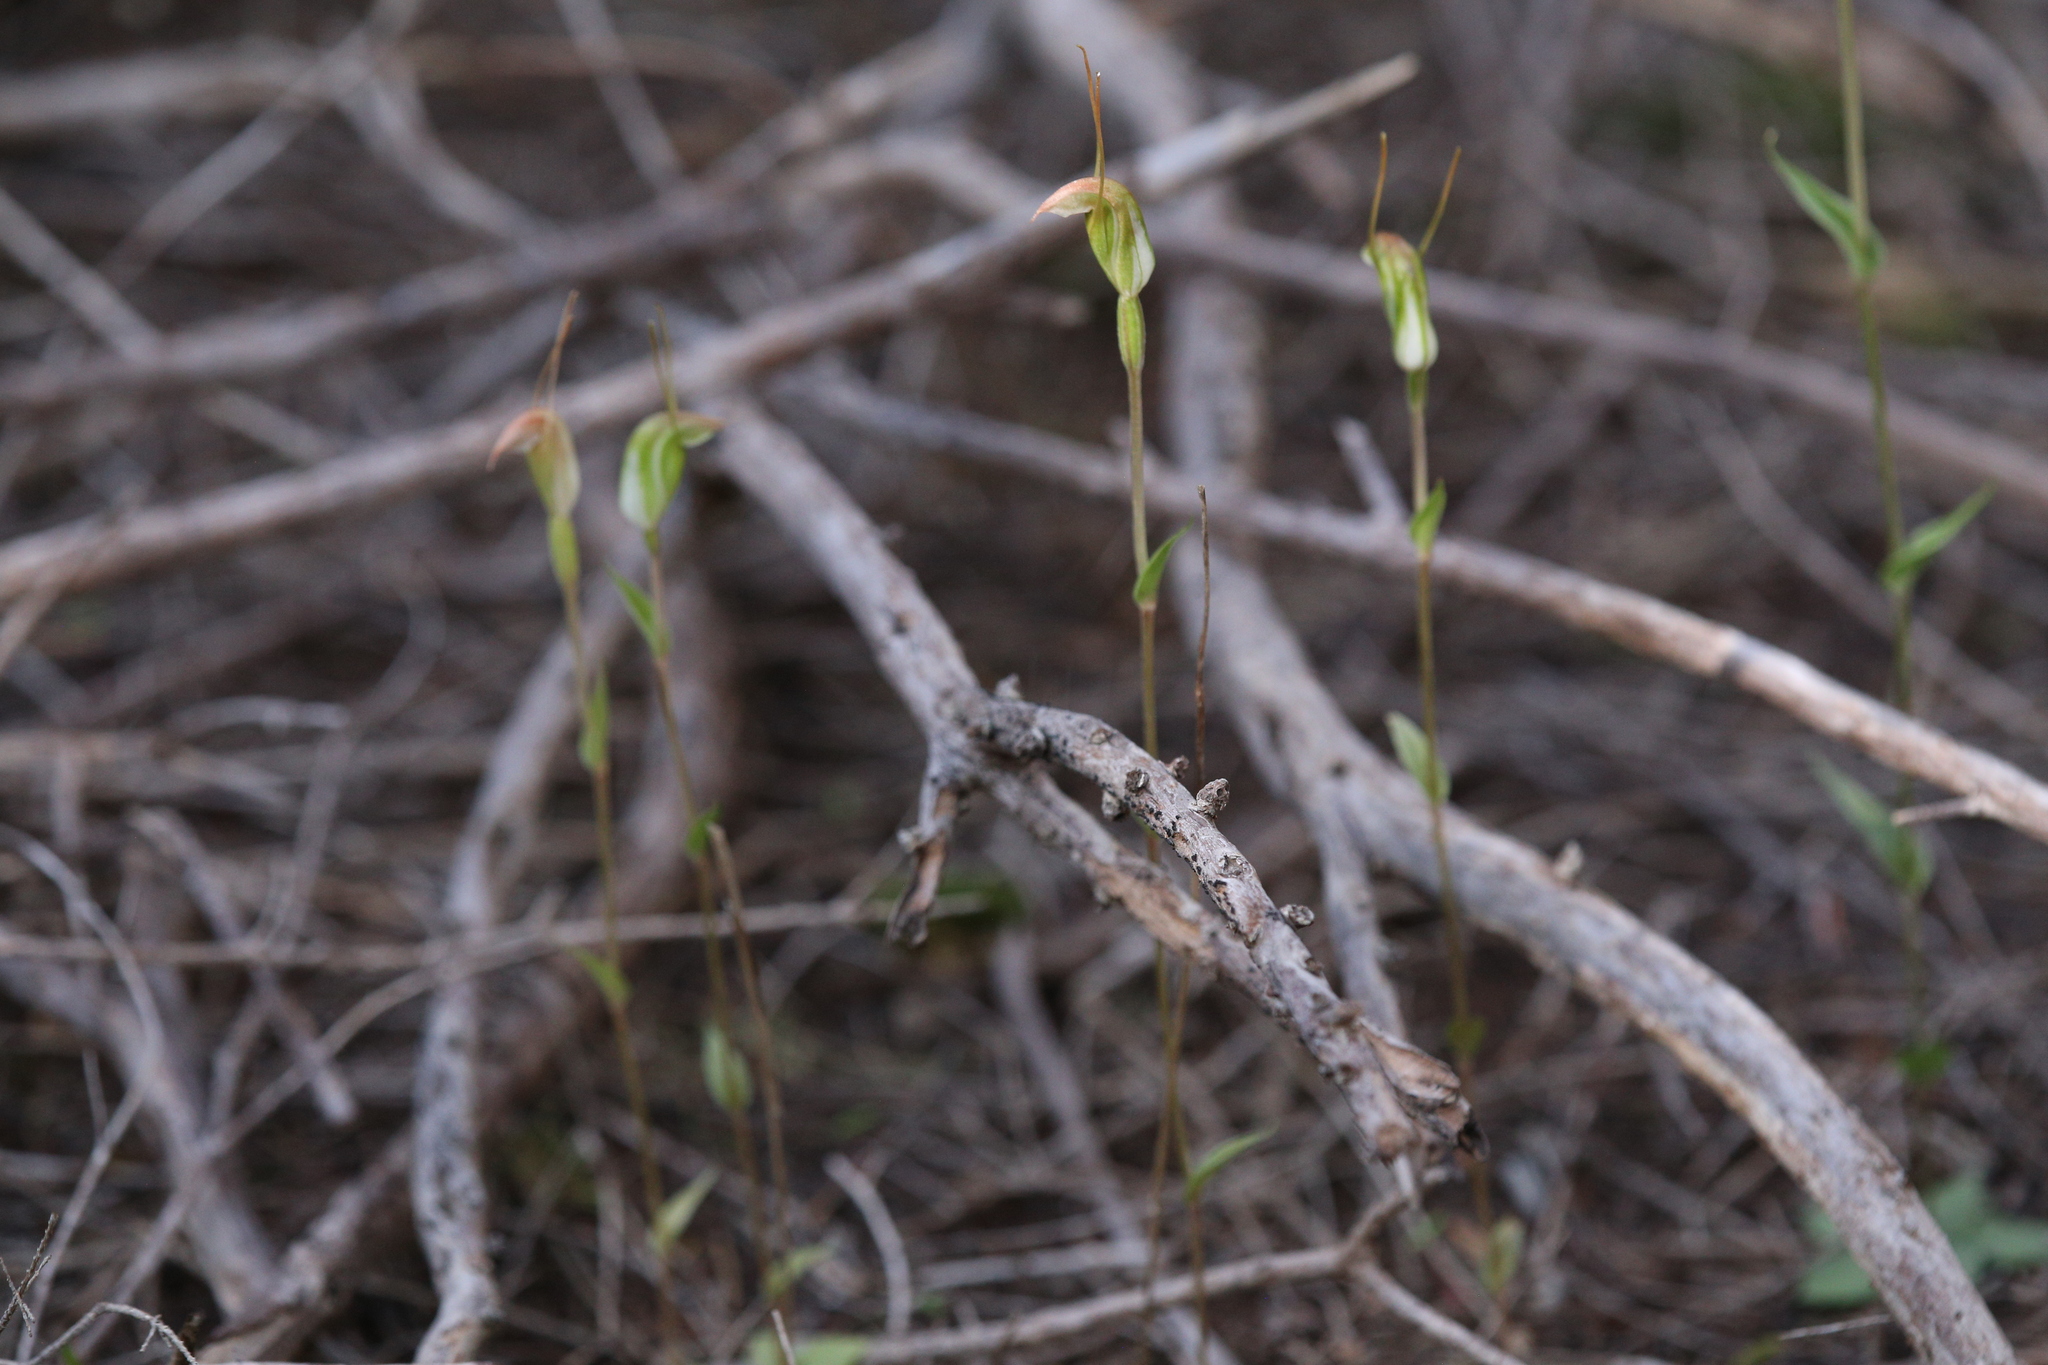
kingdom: Plantae
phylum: Tracheophyta
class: Liliopsida
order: Asparagales
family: Orchidaceae
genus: Pterostylis
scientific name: Pterostylis erubescens
